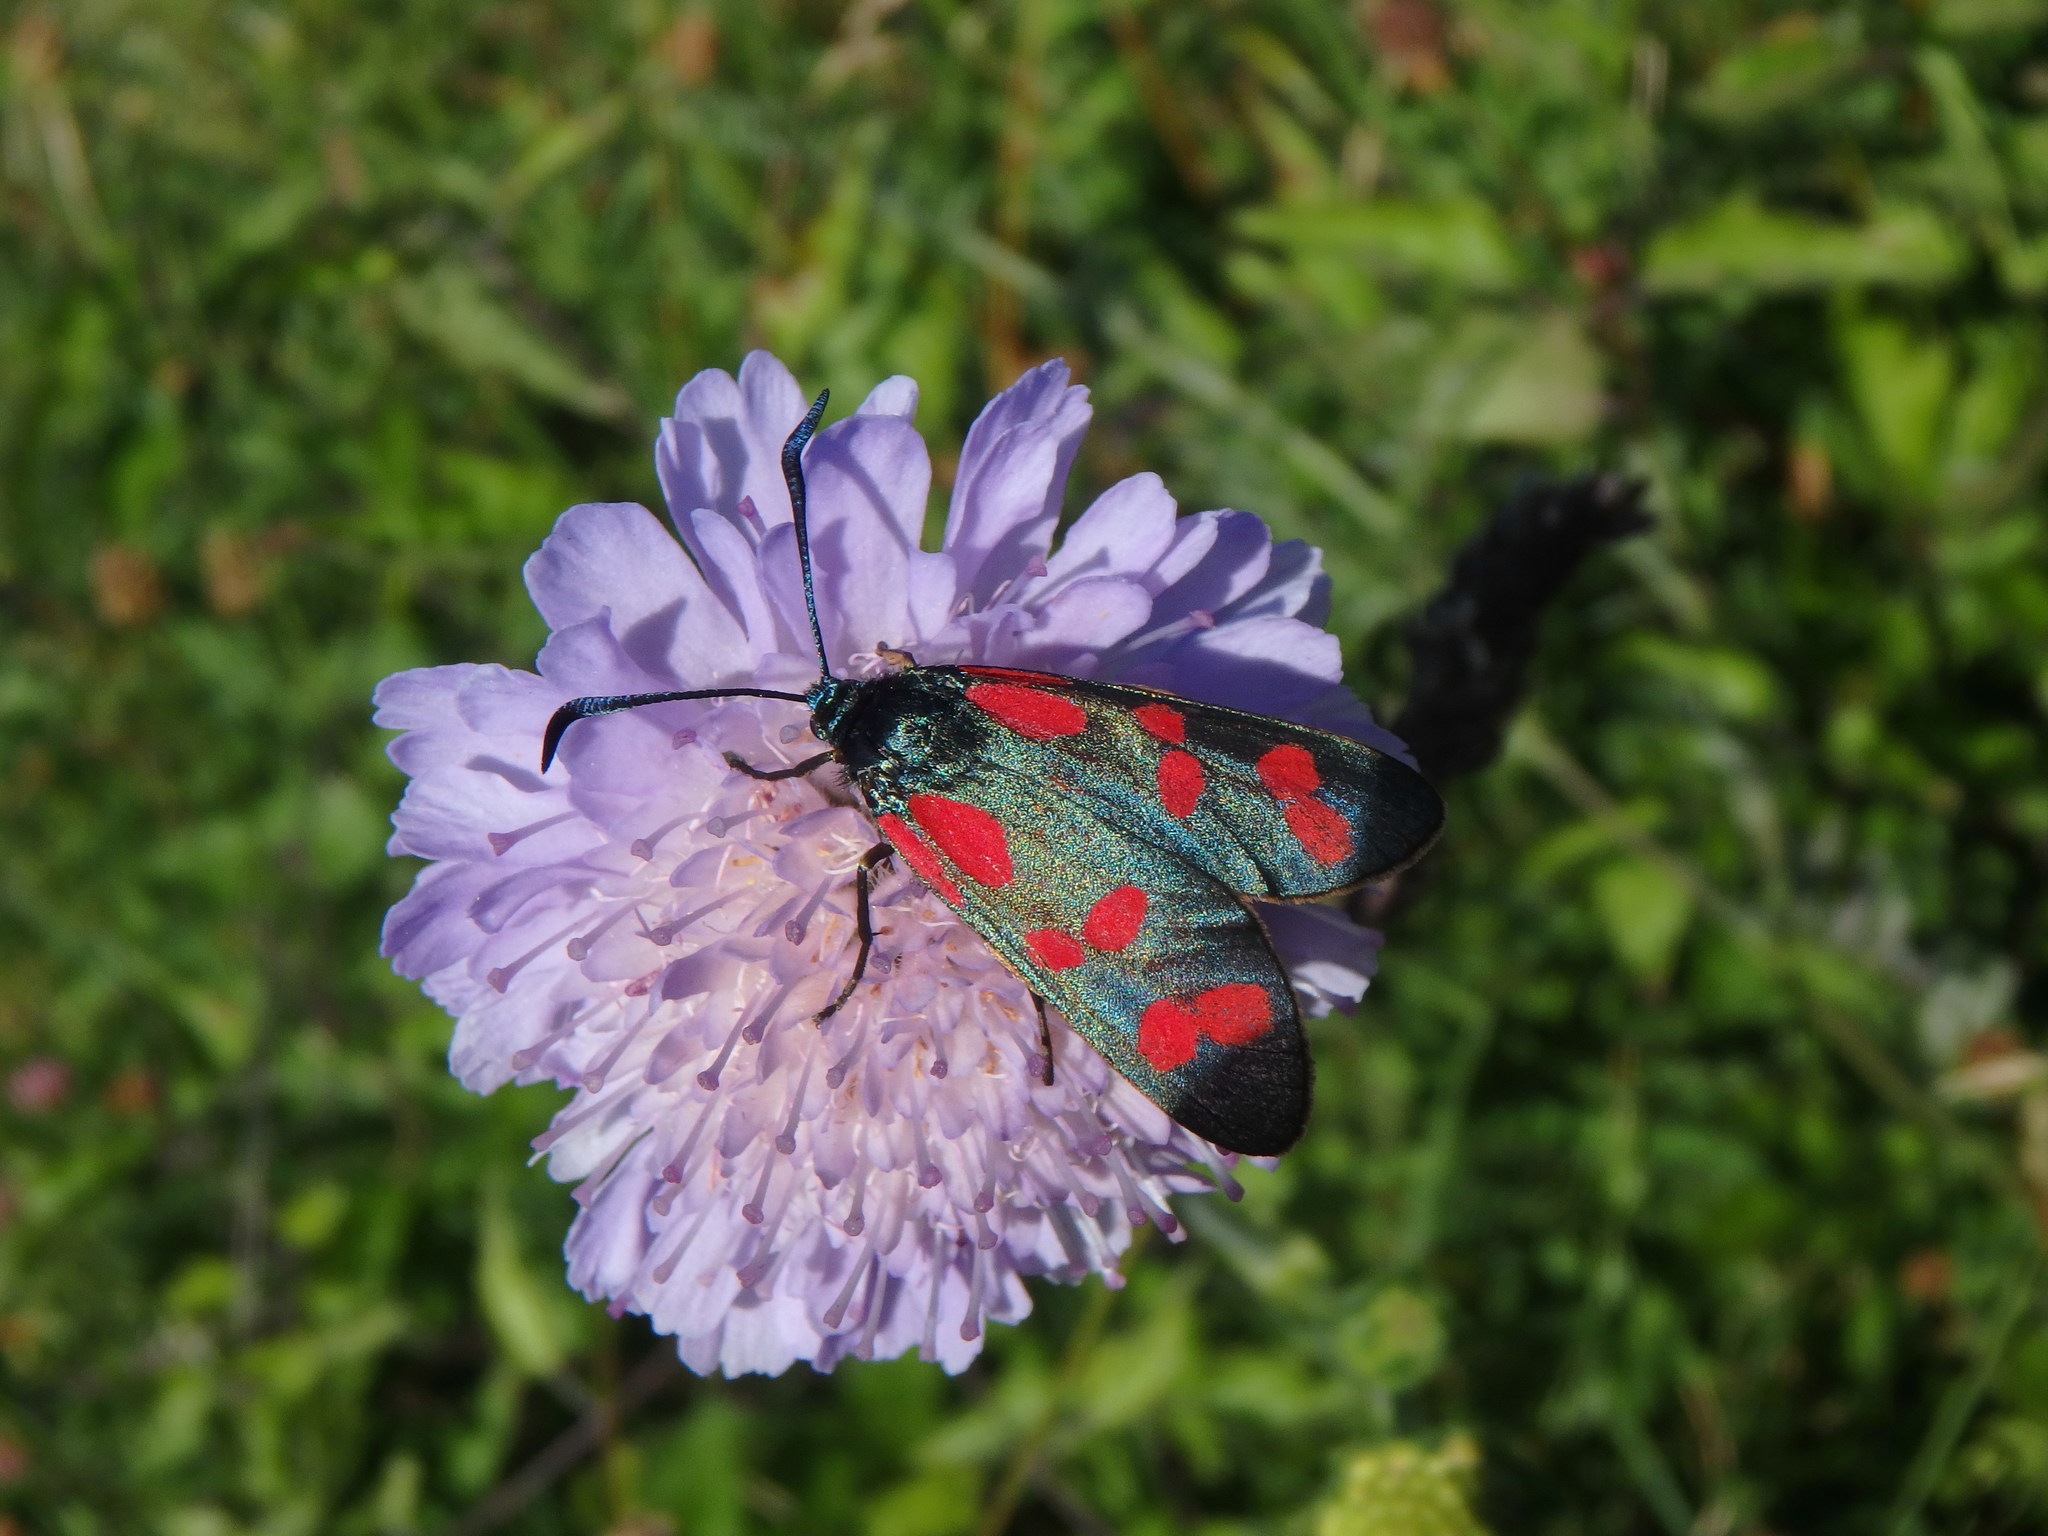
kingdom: Animalia
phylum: Arthropoda
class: Insecta
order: Lepidoptera
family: Zygaenidae
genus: Zygaena
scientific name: Zygaena filipendulae
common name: Six-spot burnet
